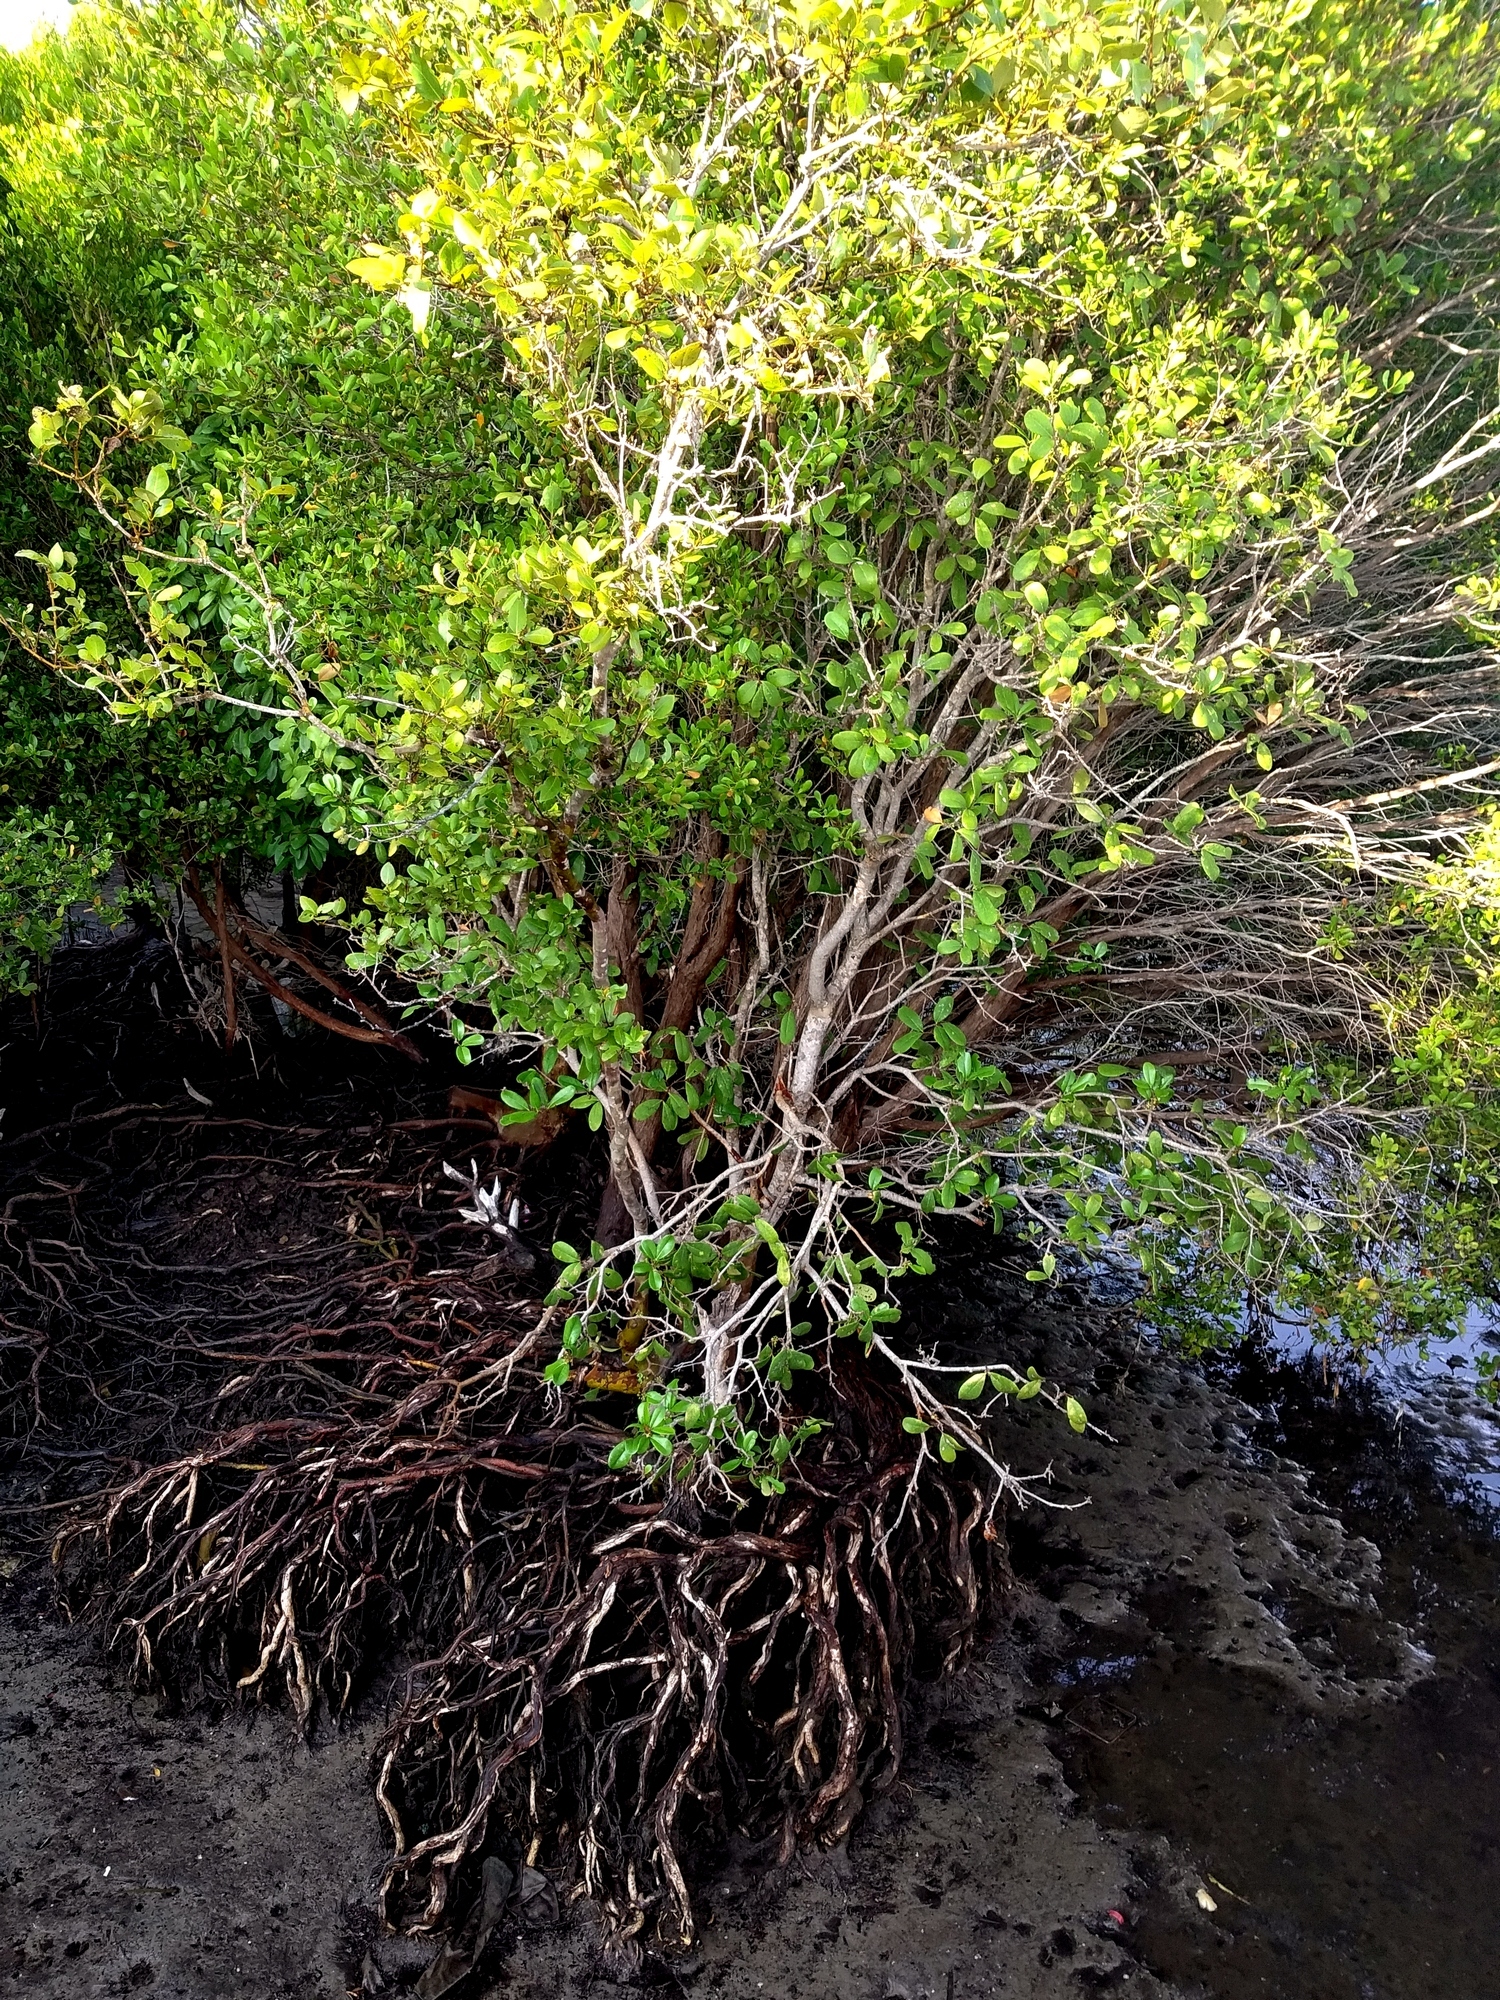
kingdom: Plantae
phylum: Tracheophyta
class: Magnoliopsida
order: Myrtales
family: Myrtaceae
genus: Osbornia
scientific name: Osbornia octodonta
